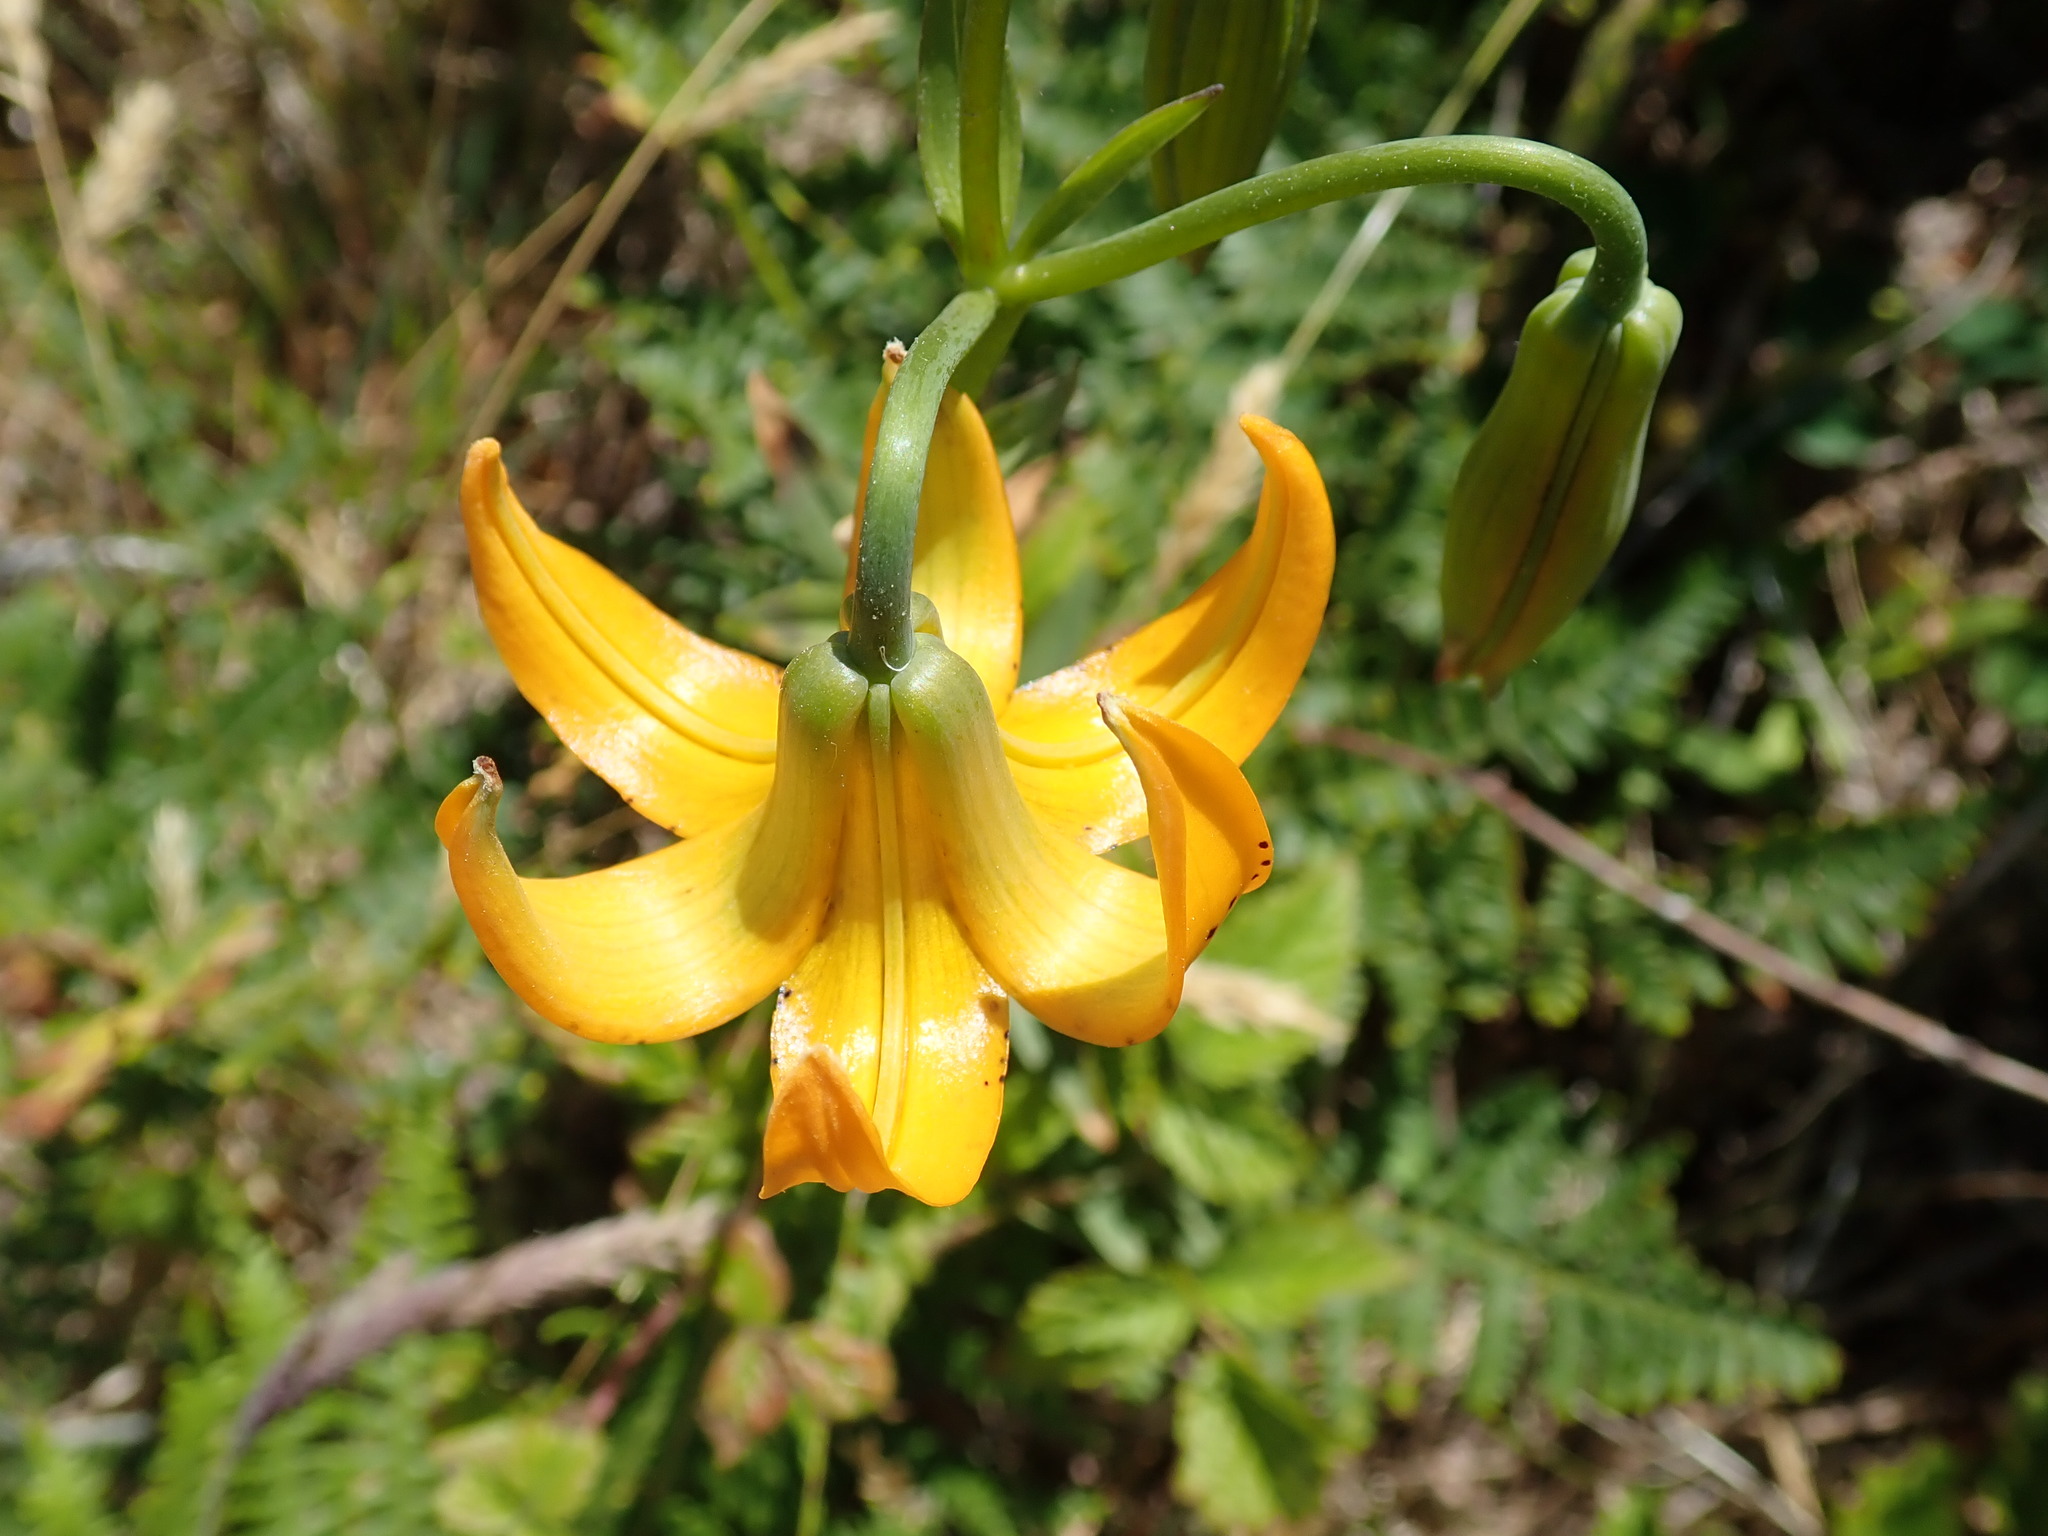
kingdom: Plantae
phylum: Tracheophyta
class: Liliopsida
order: Liliales
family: Liliaceae
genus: Lilium
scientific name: Lilium columbianum
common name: Columbia lily
